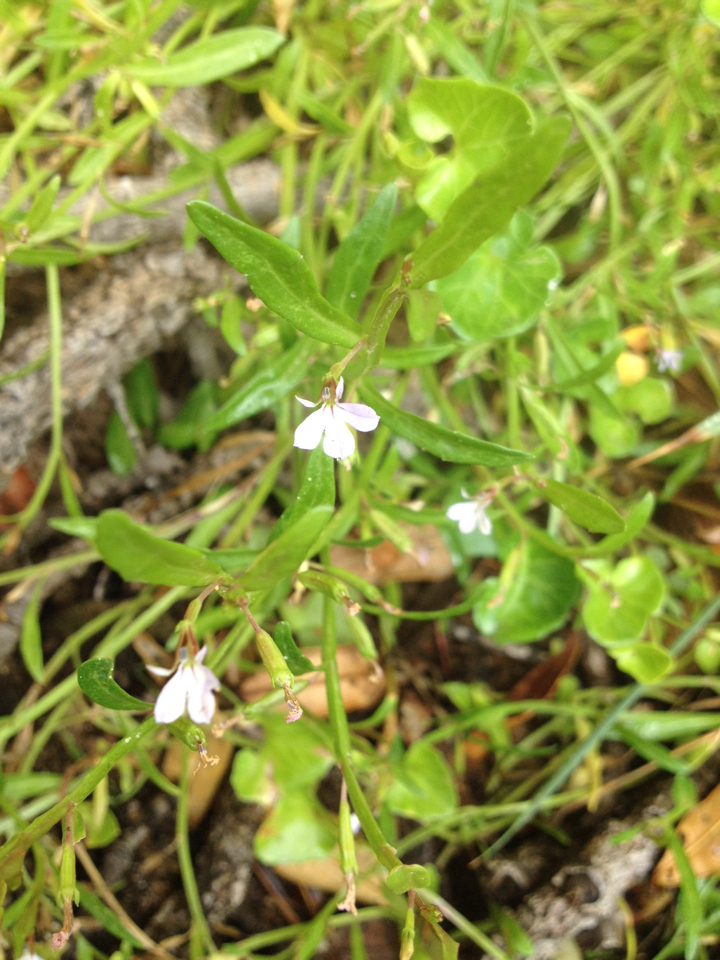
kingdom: Plantae
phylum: Tracheophyta
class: Magnoliopsida
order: Asterales
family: Campanulaceae
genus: Lobelia
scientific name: Lobelia anceps
